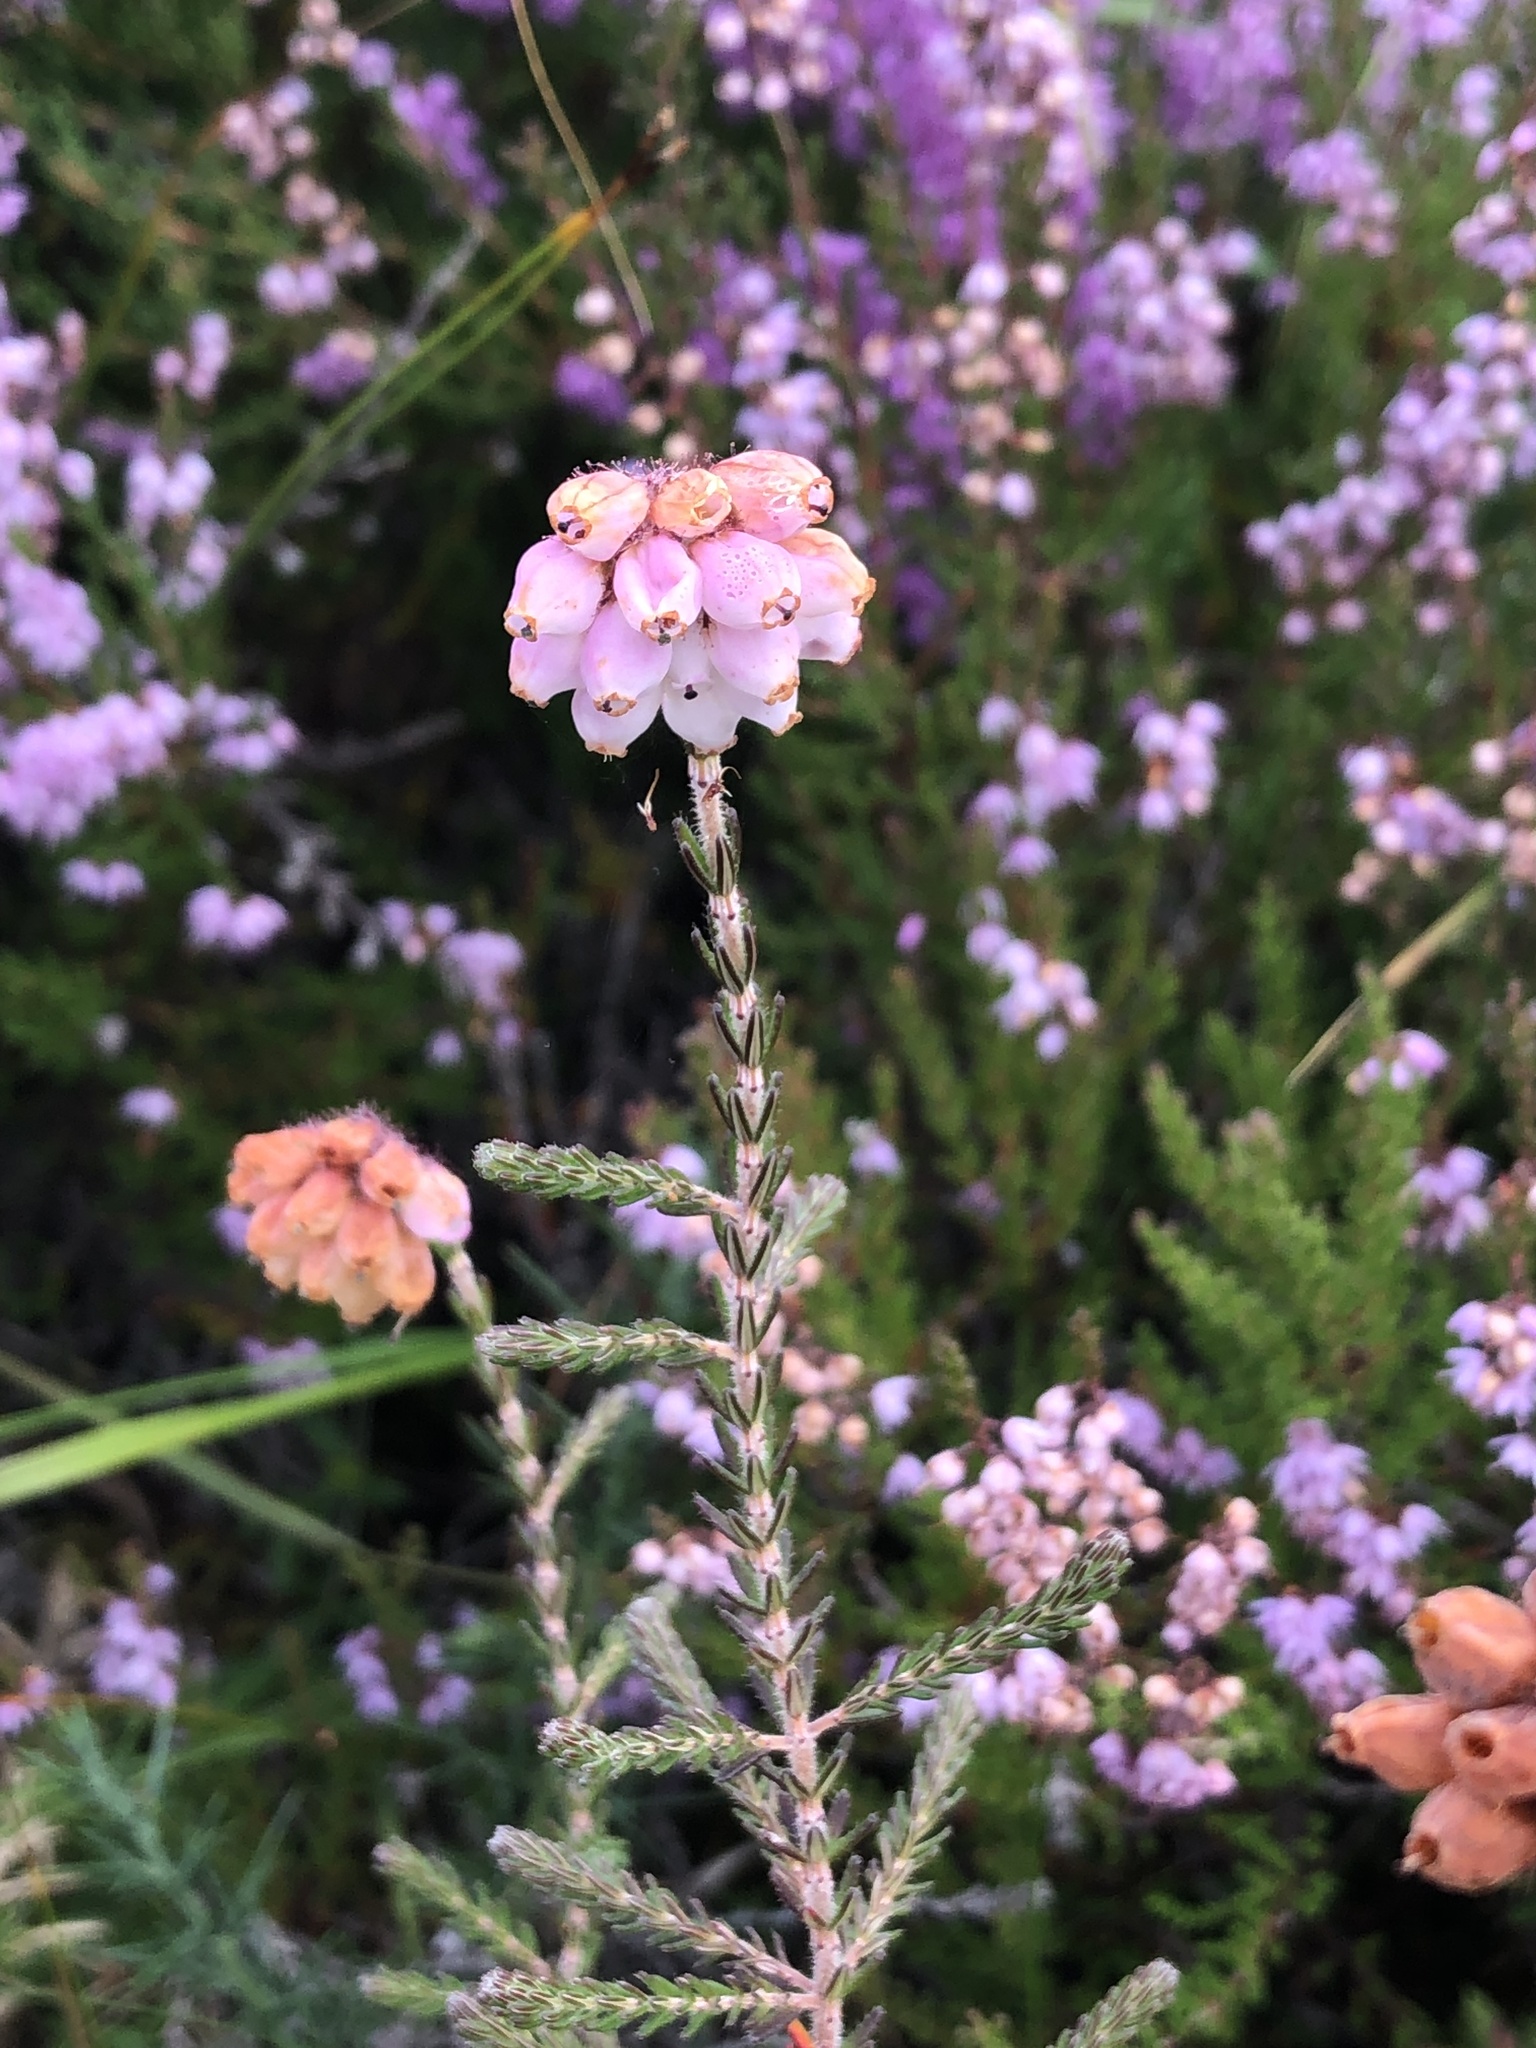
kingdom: Plantae
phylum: Tracheophyta
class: Magnoliopsida
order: Ericales
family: Ericaceae
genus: Erica
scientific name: Erica tetralix
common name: Cross-leaved heath
